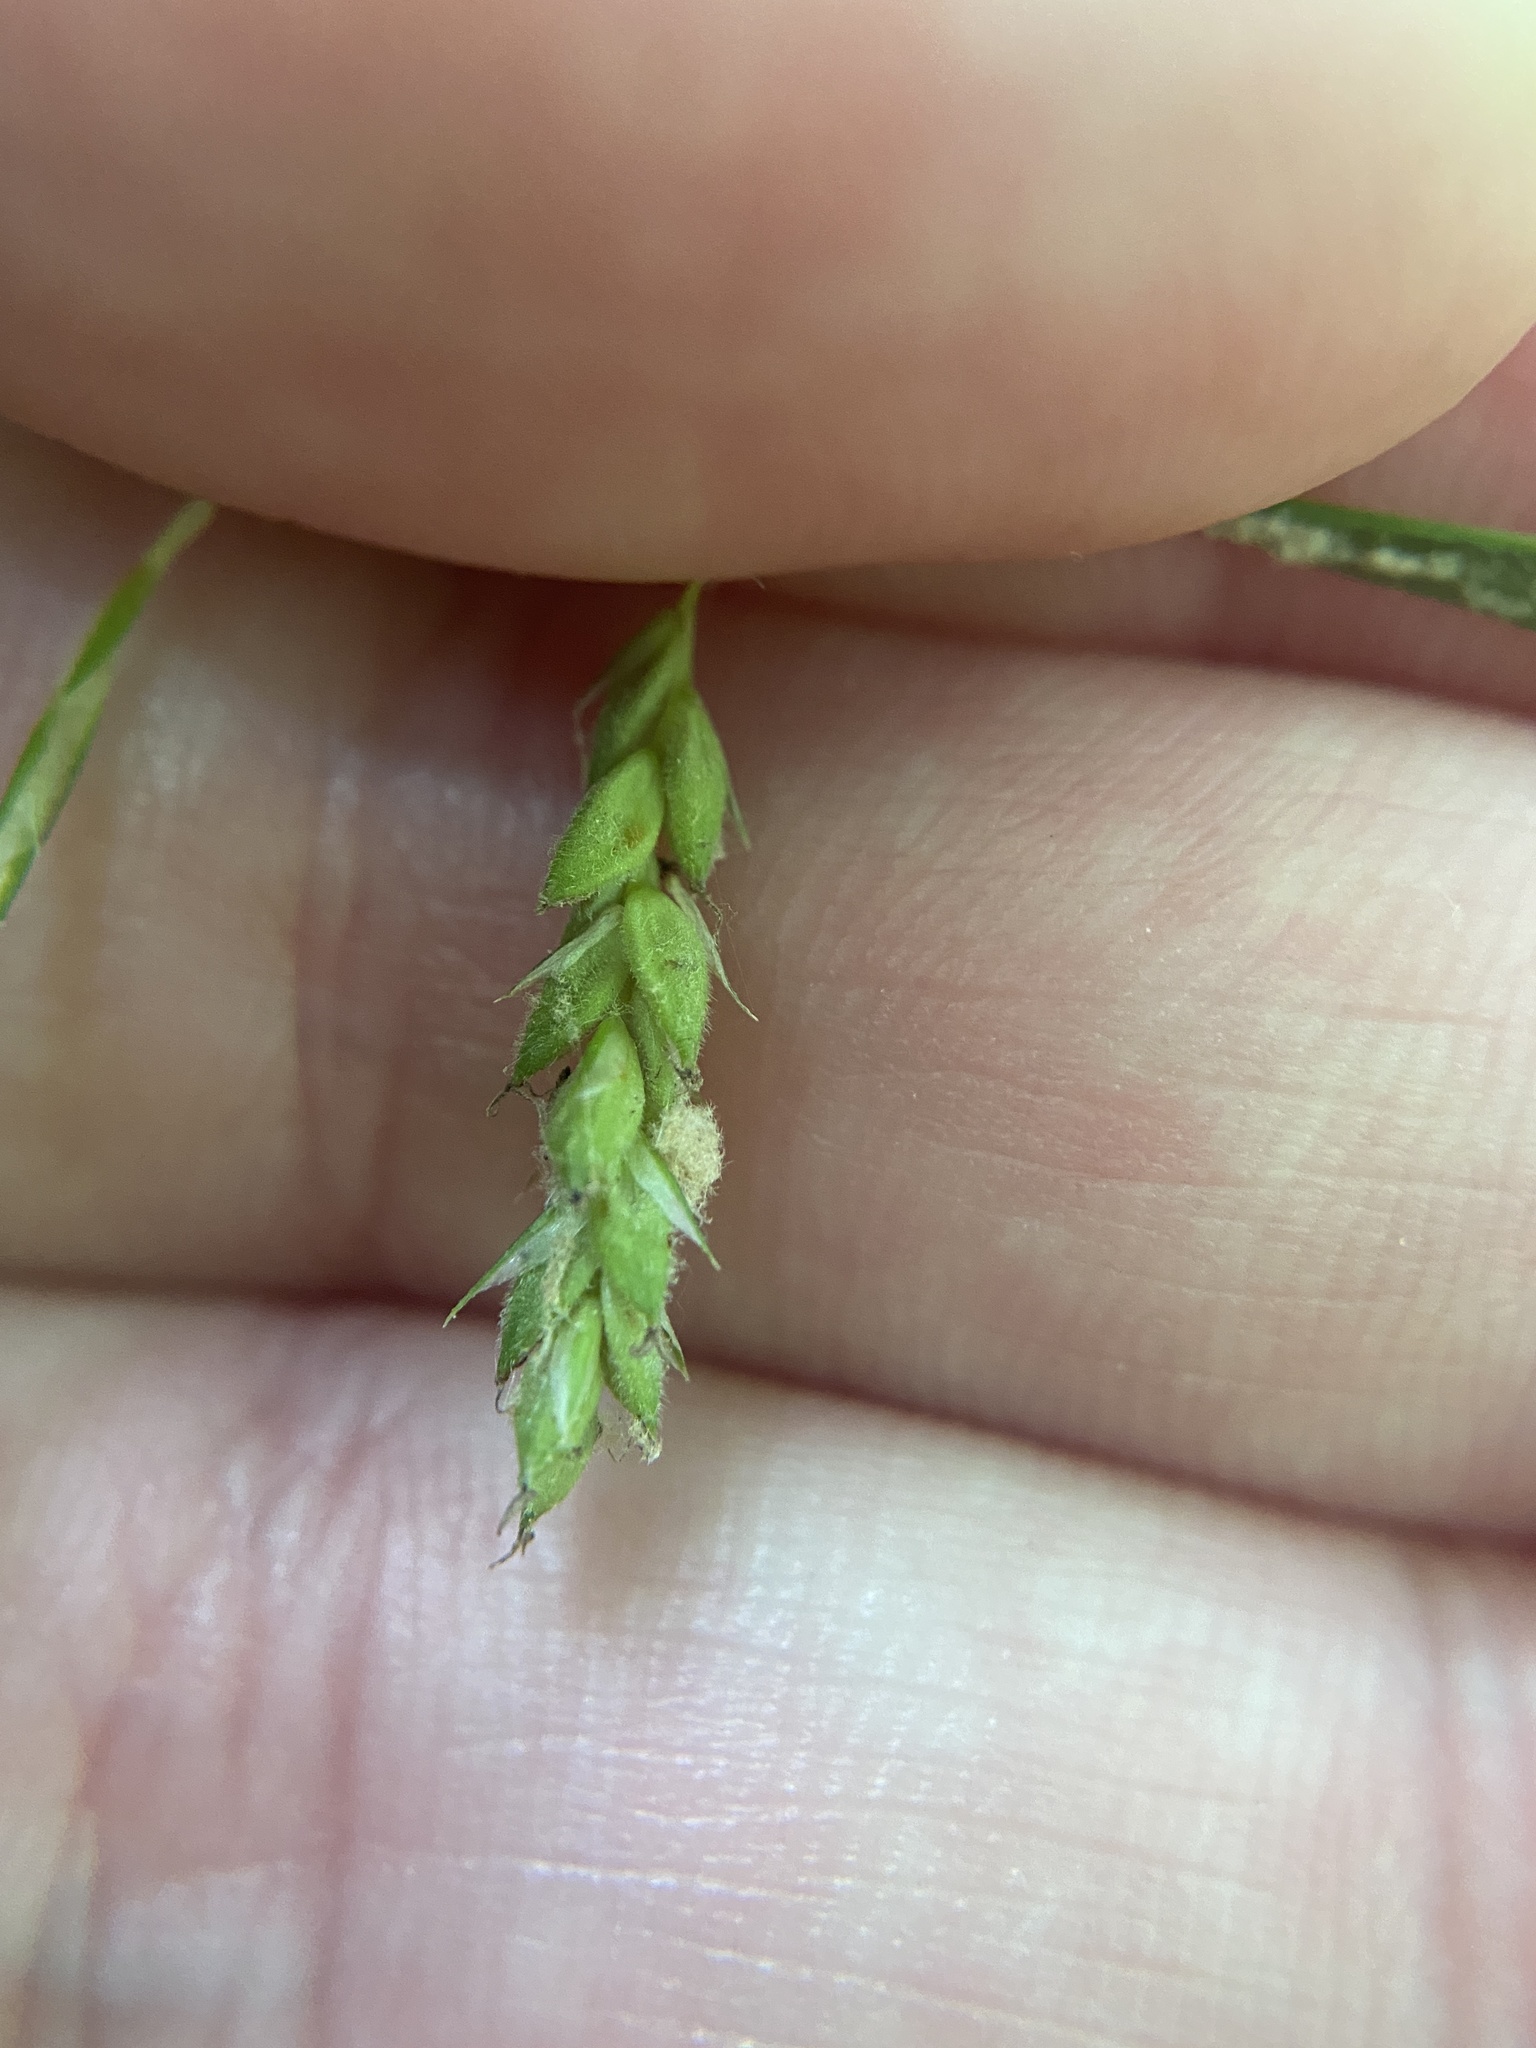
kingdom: Plantae
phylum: Tracheophyta
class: Liliopsida
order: Poales
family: Cyperaceae
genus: Carex
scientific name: Carex debilis
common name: White-edge sedge
